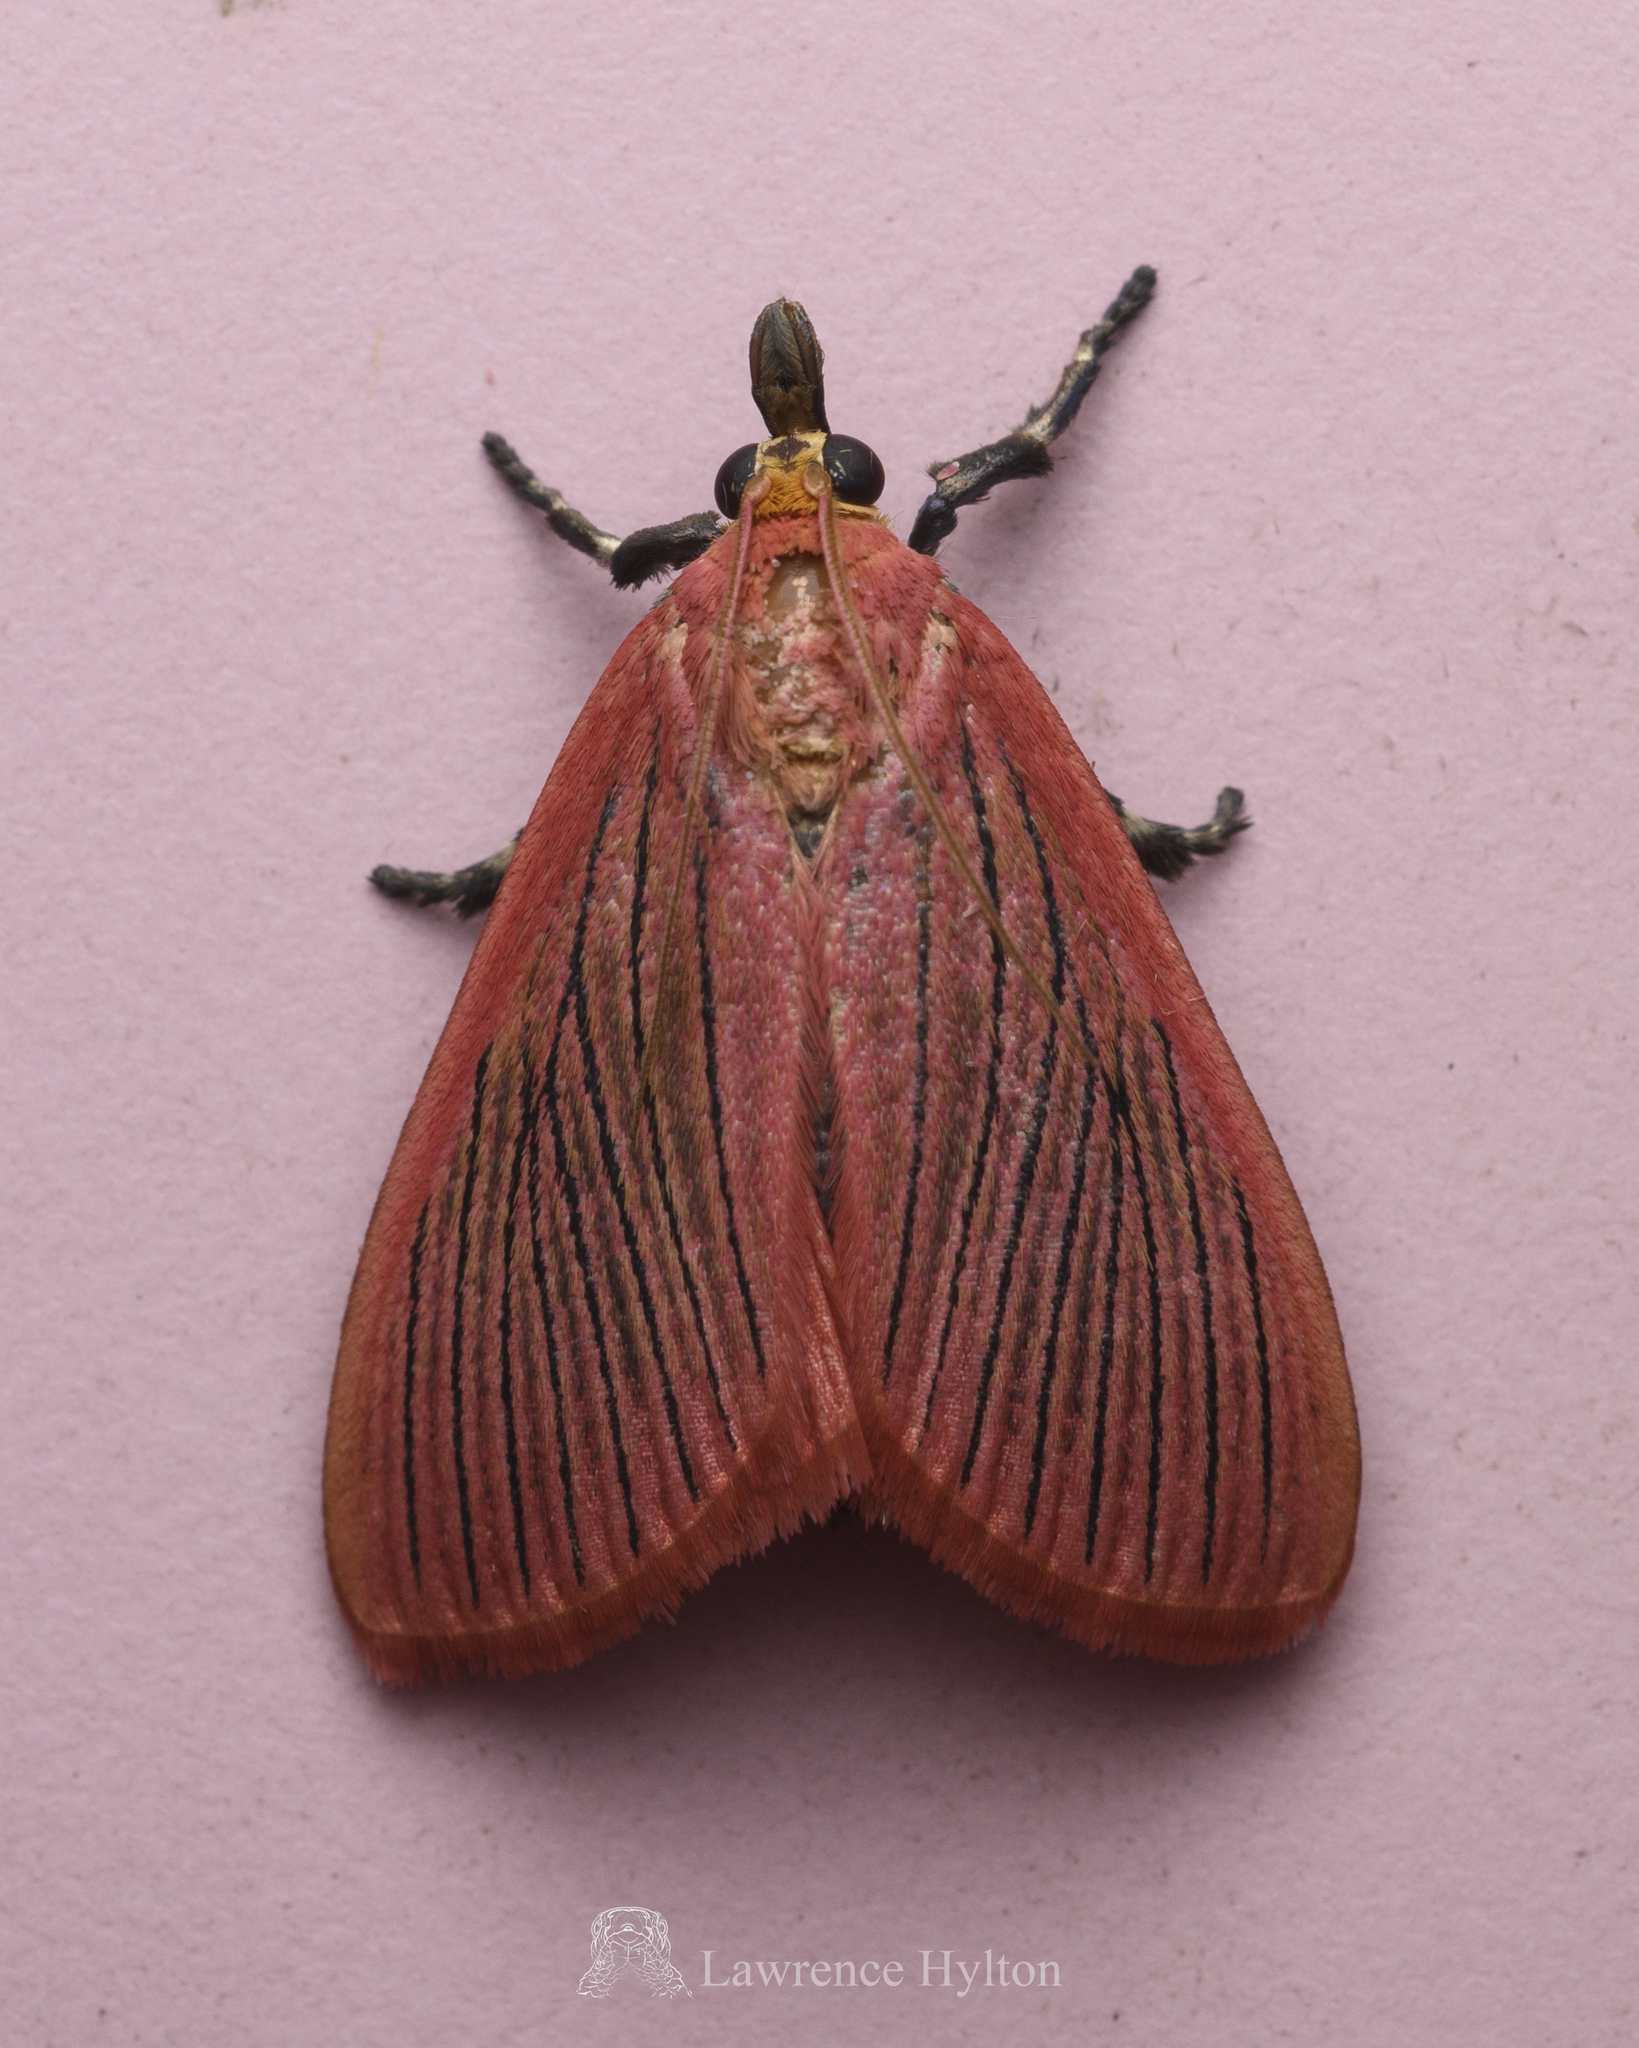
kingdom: Animalia
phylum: Arthropoda
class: Insecta
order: Lepidoptera
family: Pyralidae
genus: Arctioblepsis
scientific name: Arctioblepsis rubida
